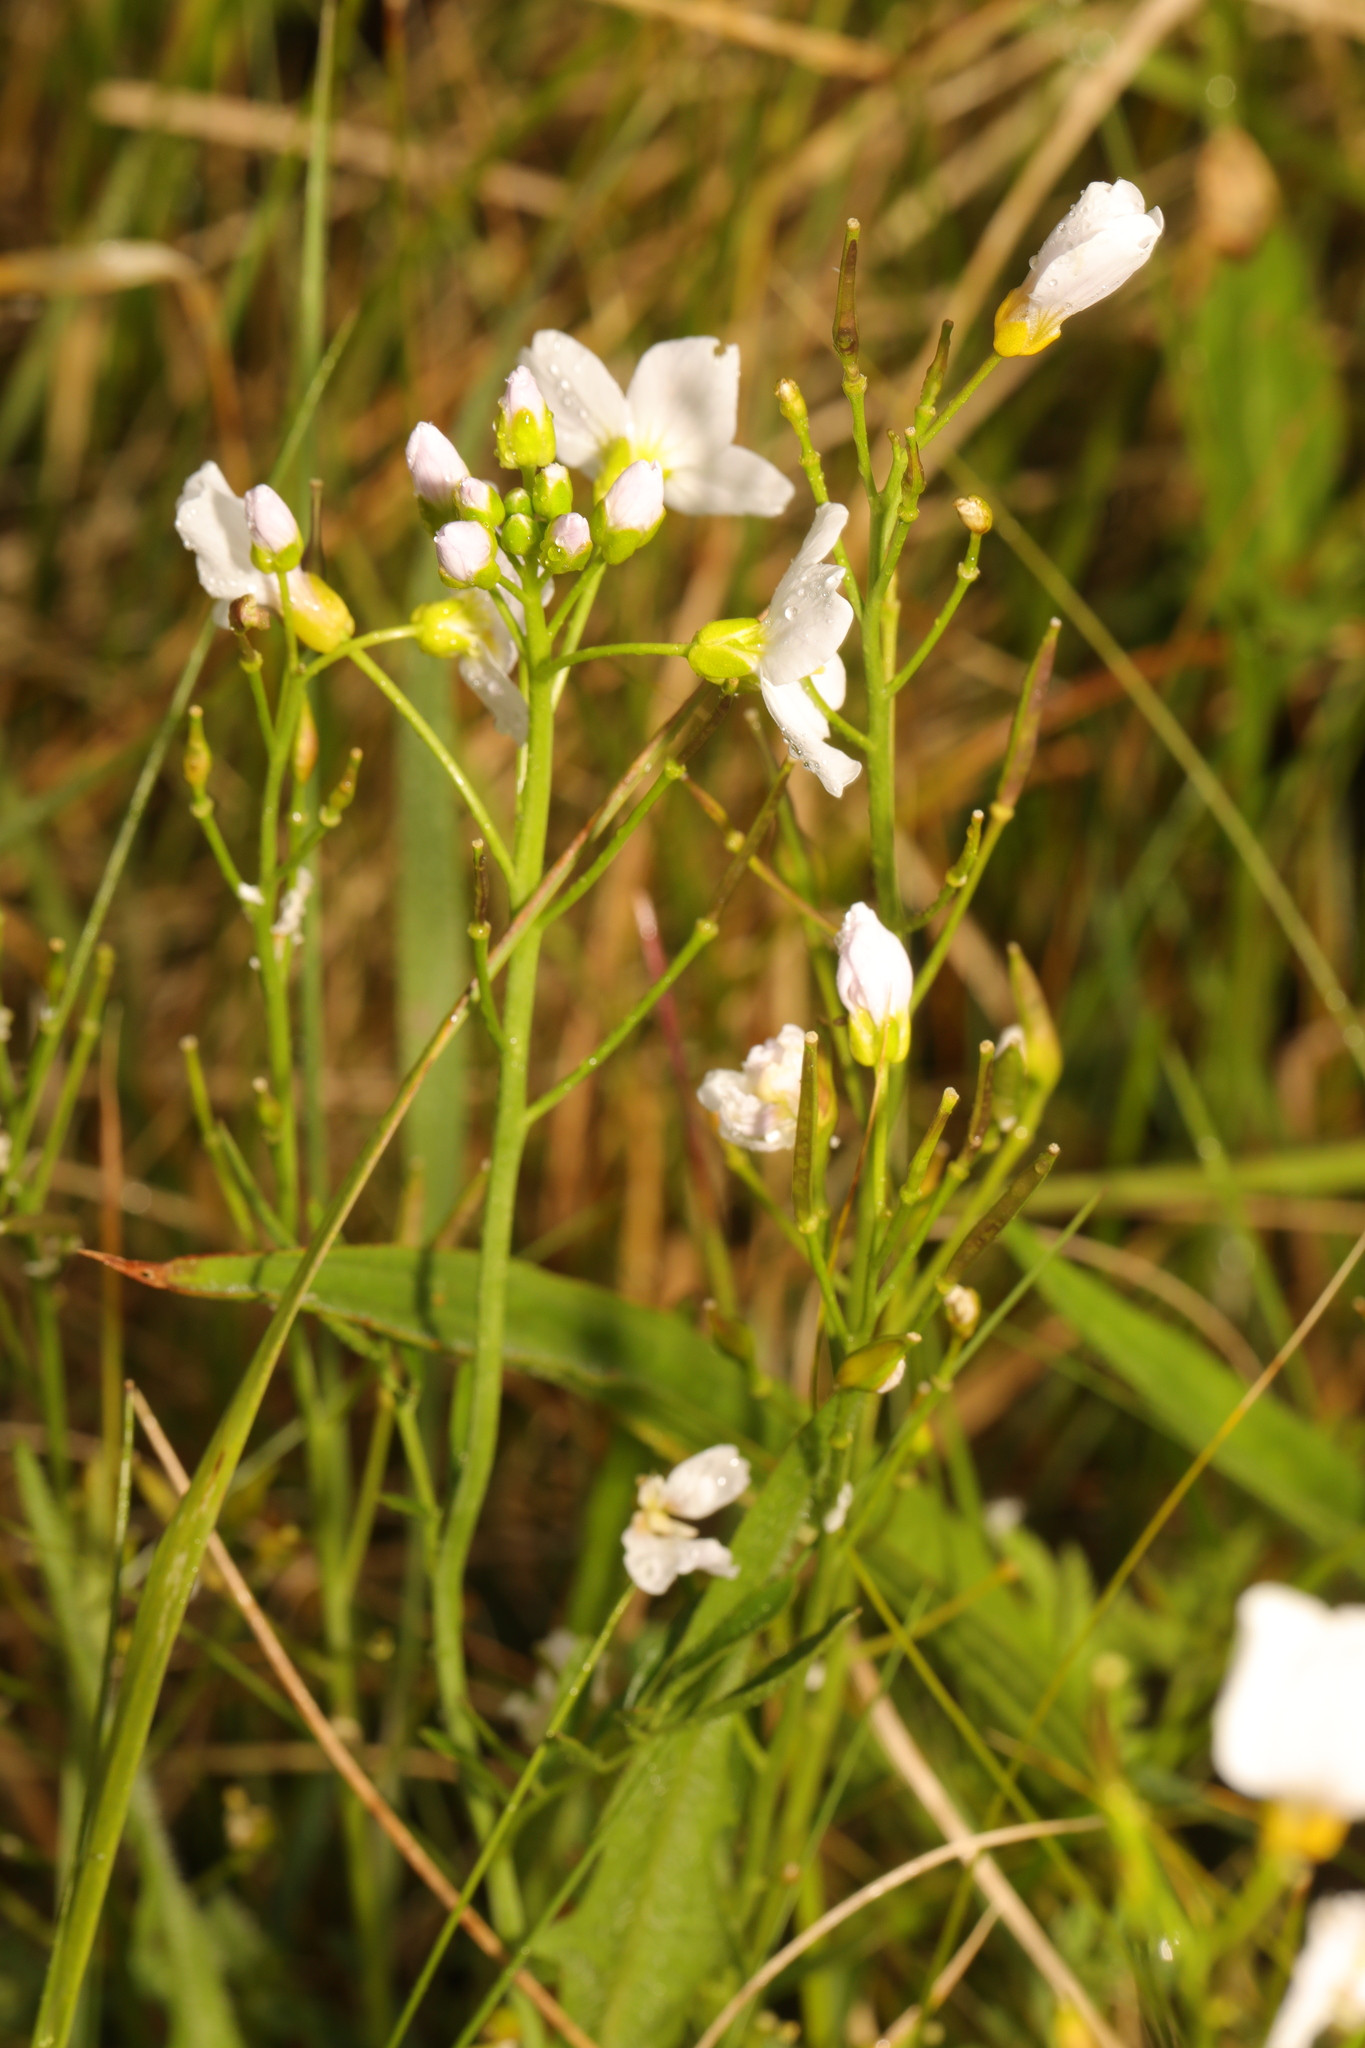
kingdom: Plantae
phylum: Tracheophyta
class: Magnoliopsida
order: Brassicales
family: Brassicaceae
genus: Cardamine
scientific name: Cardamine pratensis
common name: Cuckoo flower
